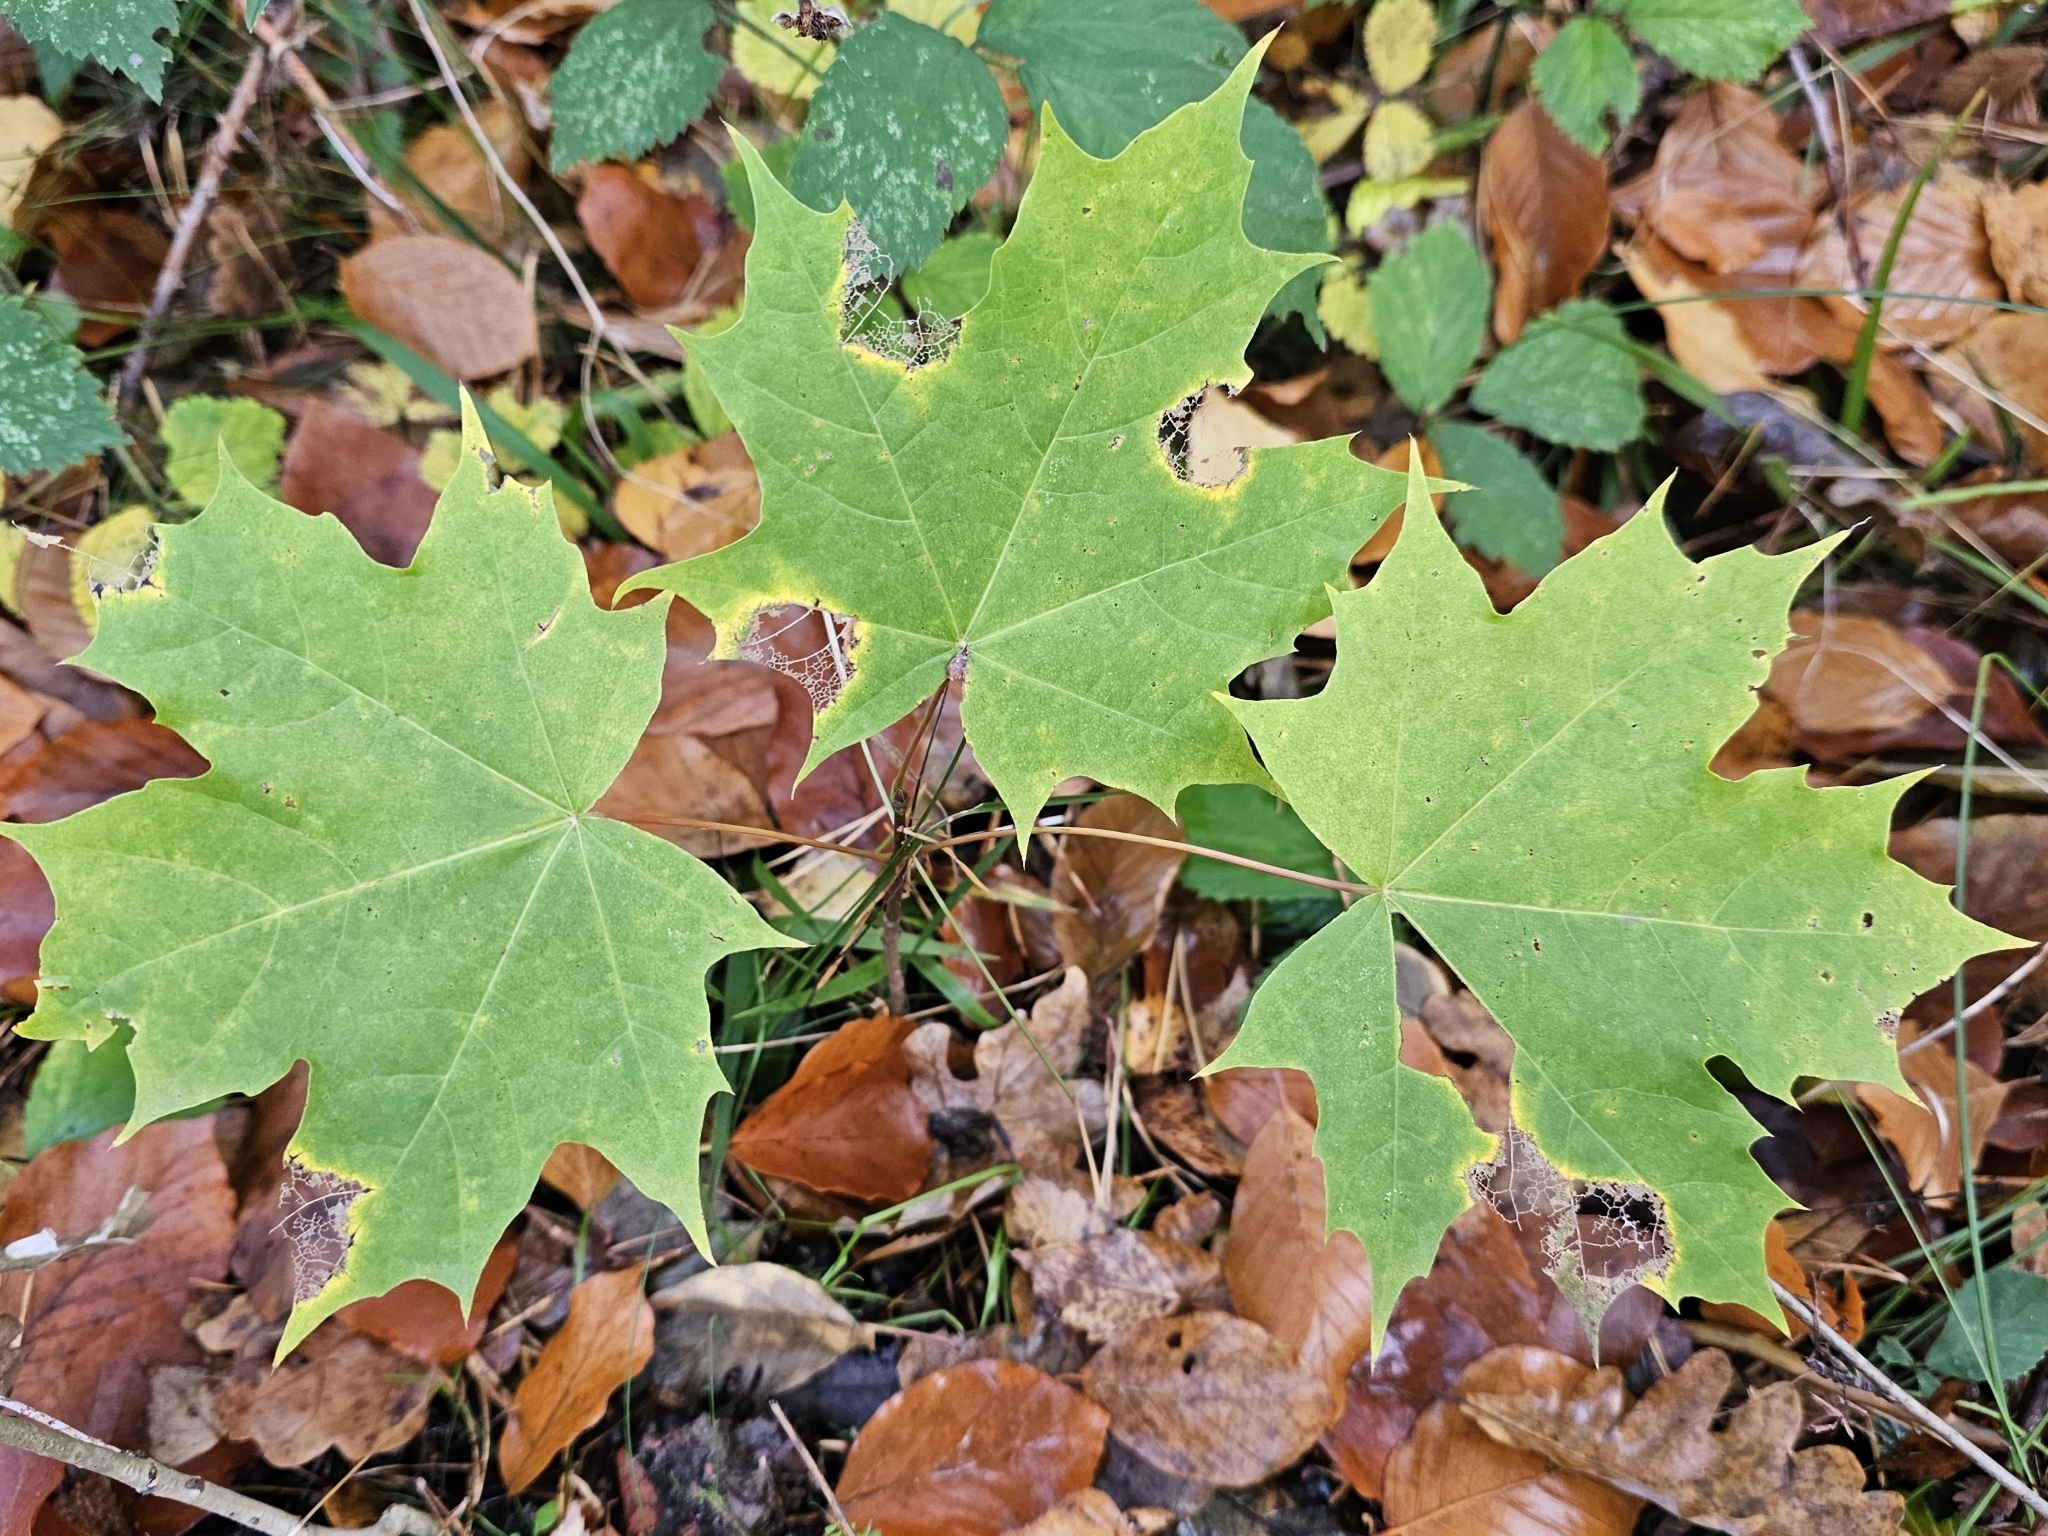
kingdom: Plantae
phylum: Tracheophyta
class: Magnoliopsida
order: Sapindales
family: Sapindaceae
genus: Acer
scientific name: Acer platanoides
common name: Norway maple
